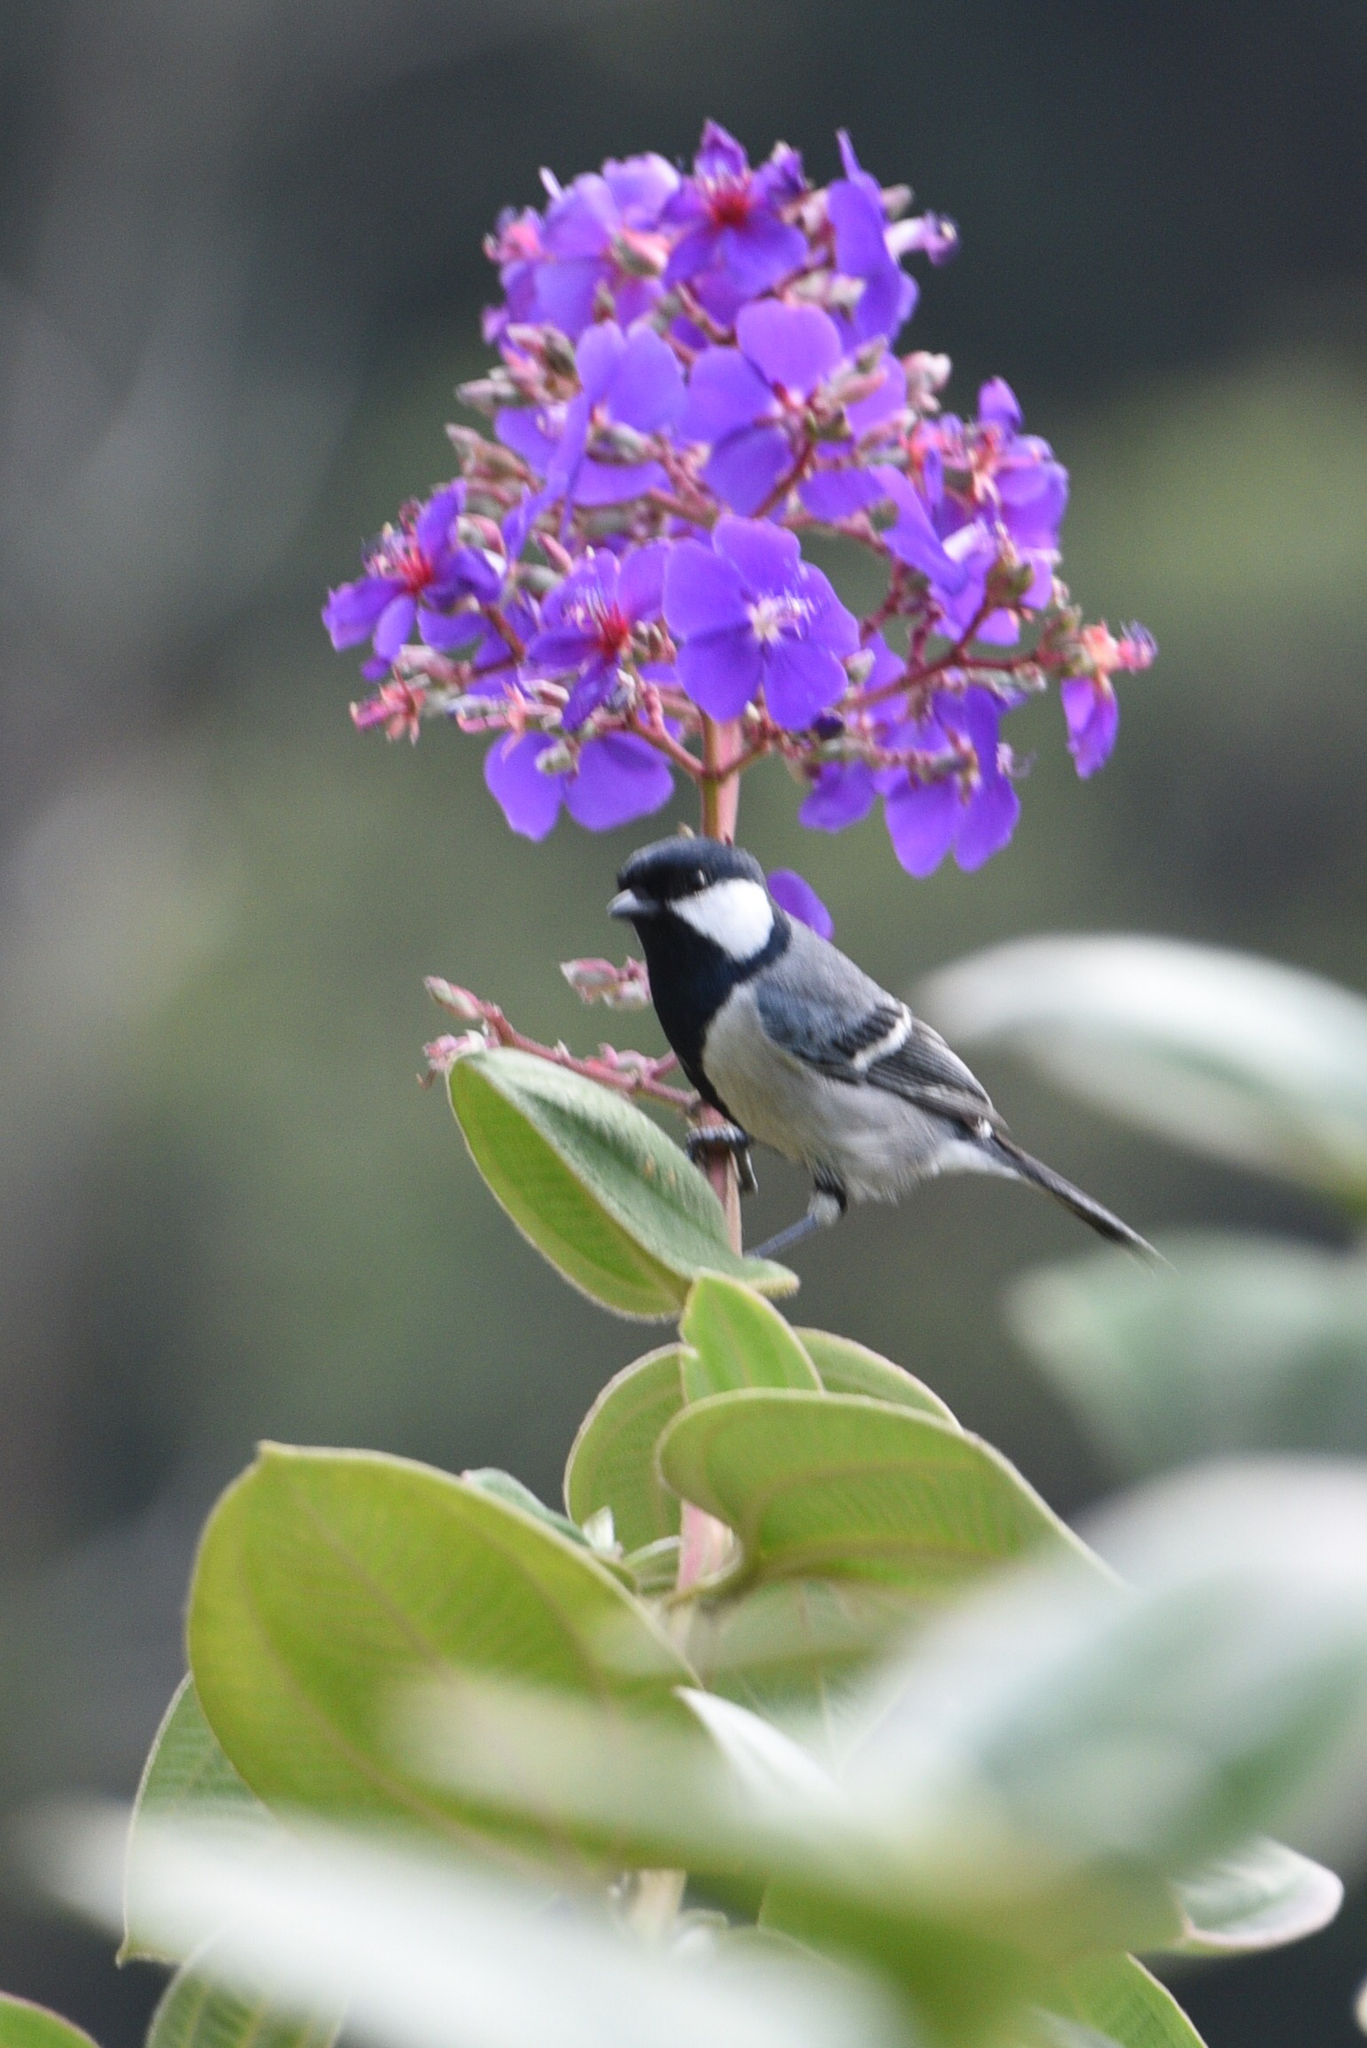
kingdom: Animalia
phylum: Chordata
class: Aves
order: Passeriformes
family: Paridae
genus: Parus
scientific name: Parus cinereus
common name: Cinereous tit
